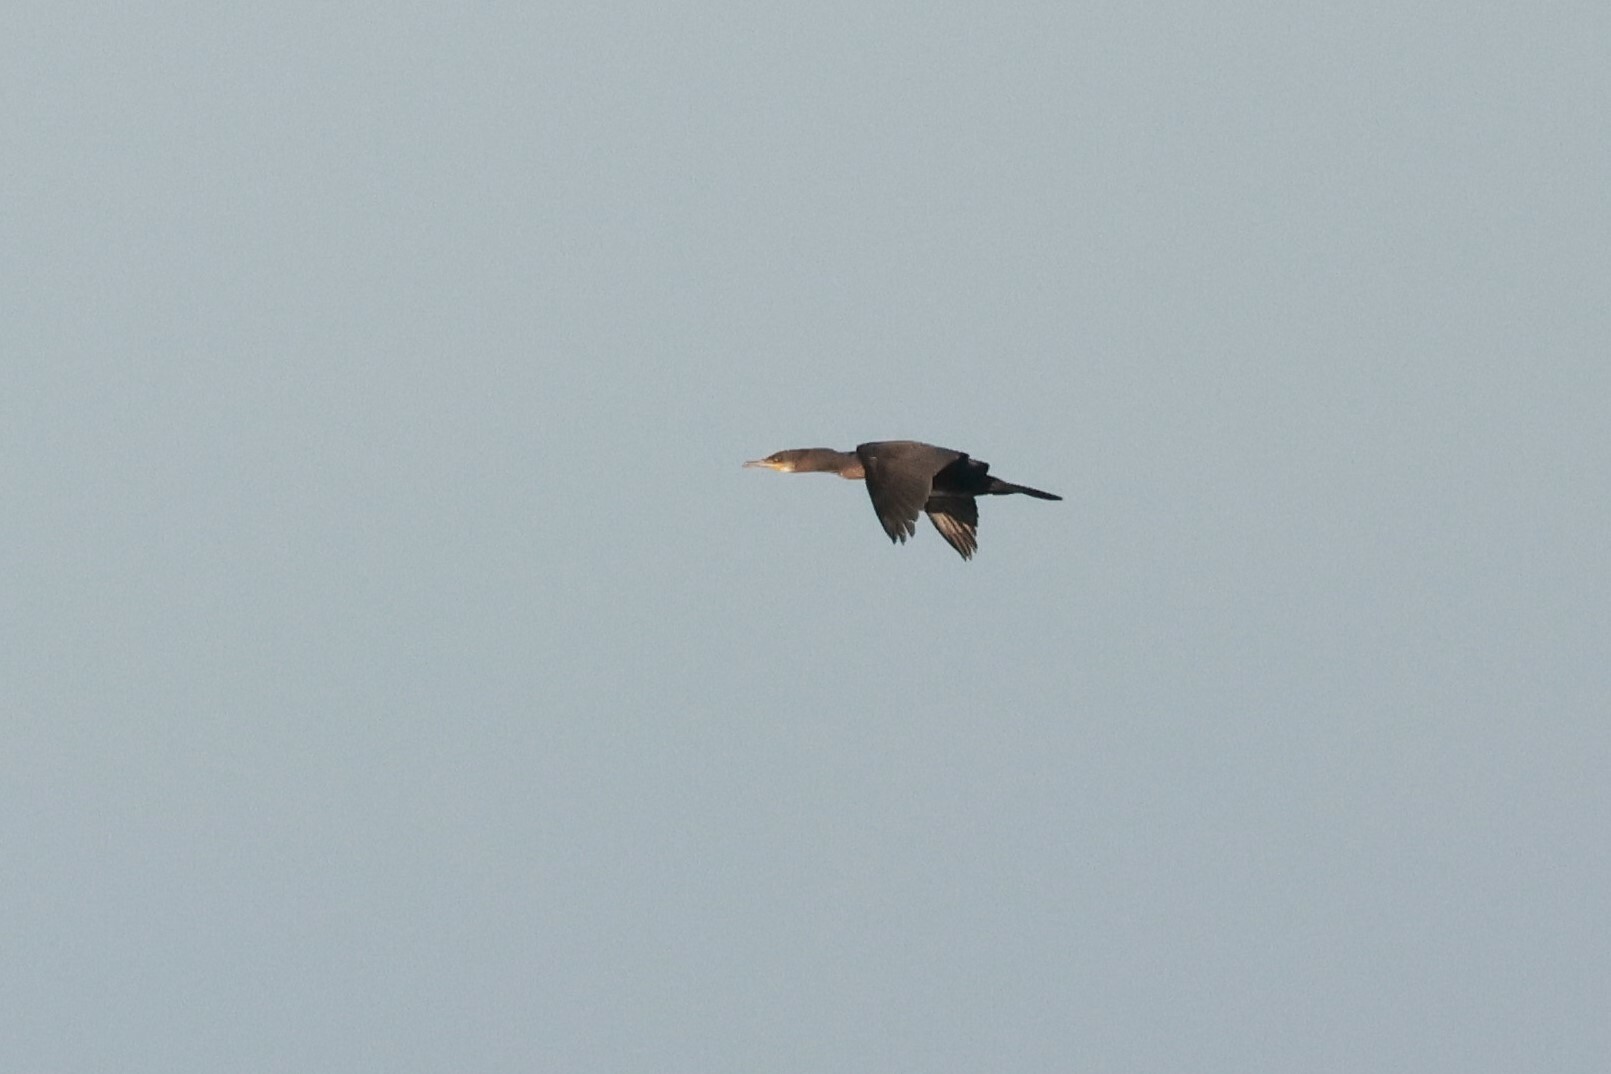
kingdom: Animalia
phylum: Chordata
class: Aves
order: Suliformes
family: Phalacrocoracidae
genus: Phalacrocorax
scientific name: Phalacrocorax carbo
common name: Great cormorant
